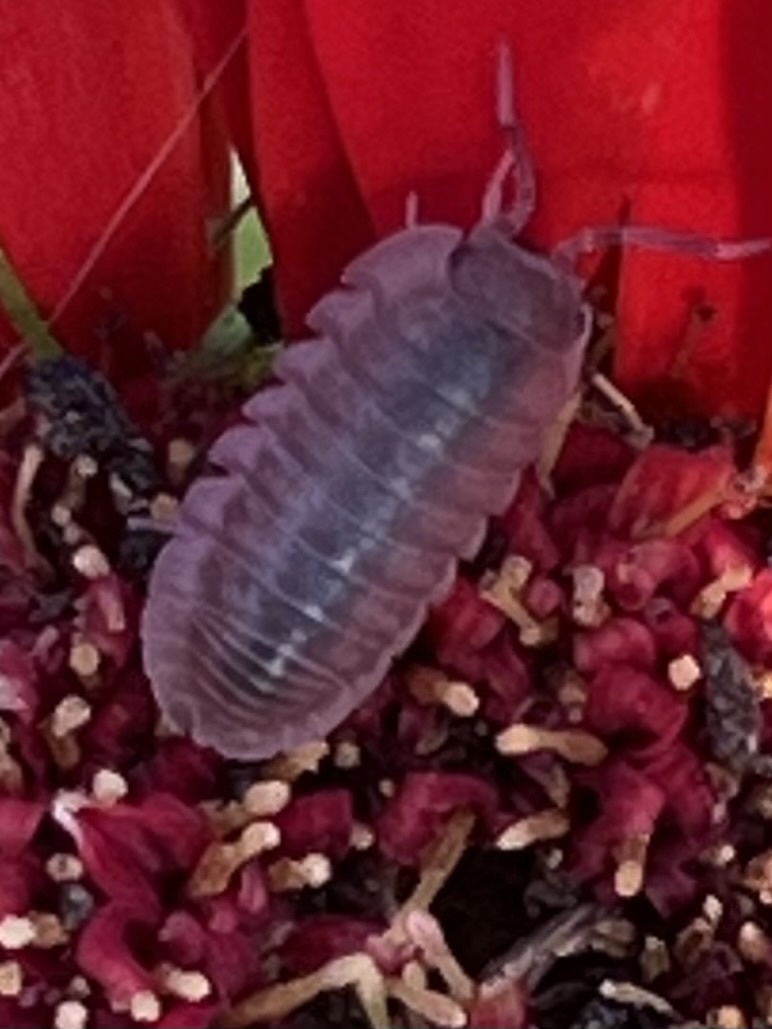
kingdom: Animalia
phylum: Arthropoda
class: Malacostraca
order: Isopoda
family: Armadillidiidae
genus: Armadillidium
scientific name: Armadillidium nasatum
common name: Isopod
